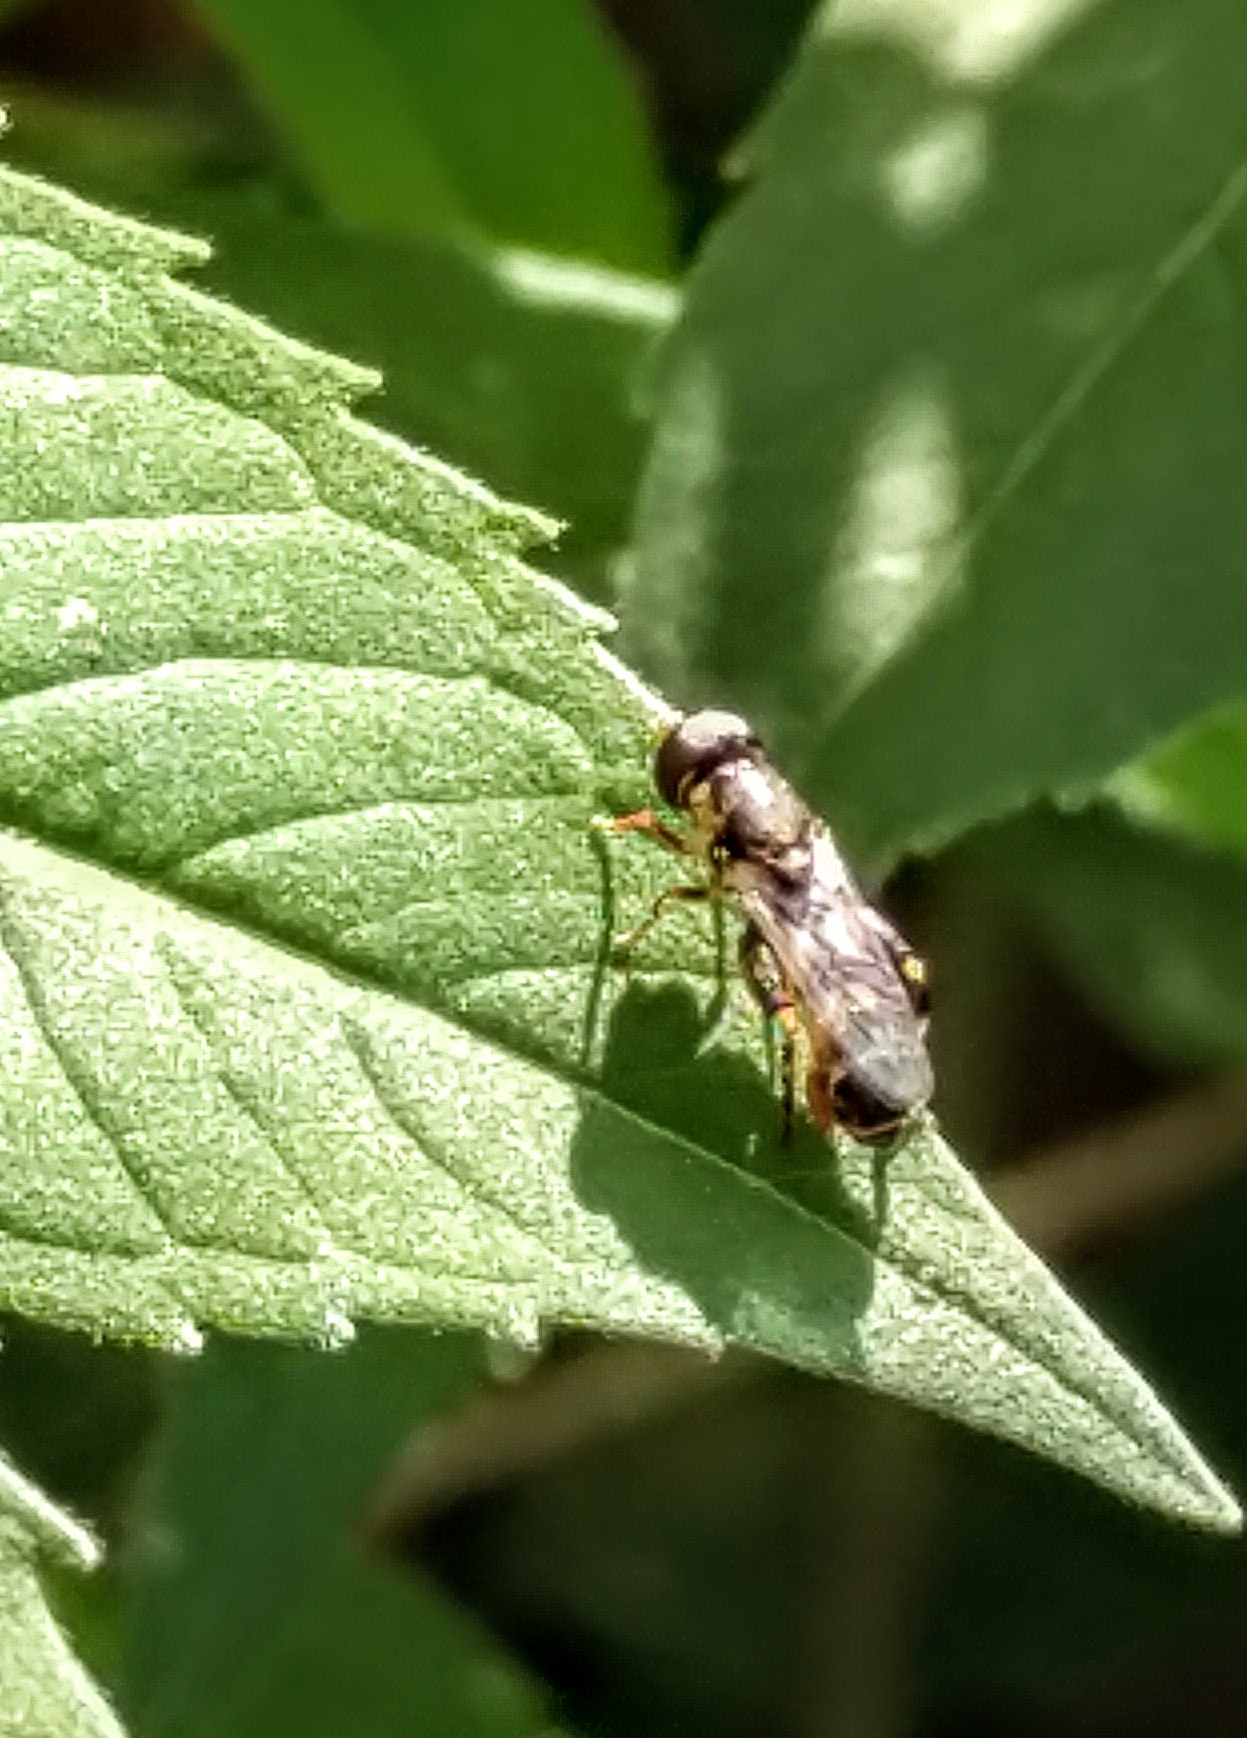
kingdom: Animalia
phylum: Arthropoda
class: Insecta
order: Diptera
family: Syrphidae
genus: Syritta
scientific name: Syritta pipiens
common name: Hover fly
